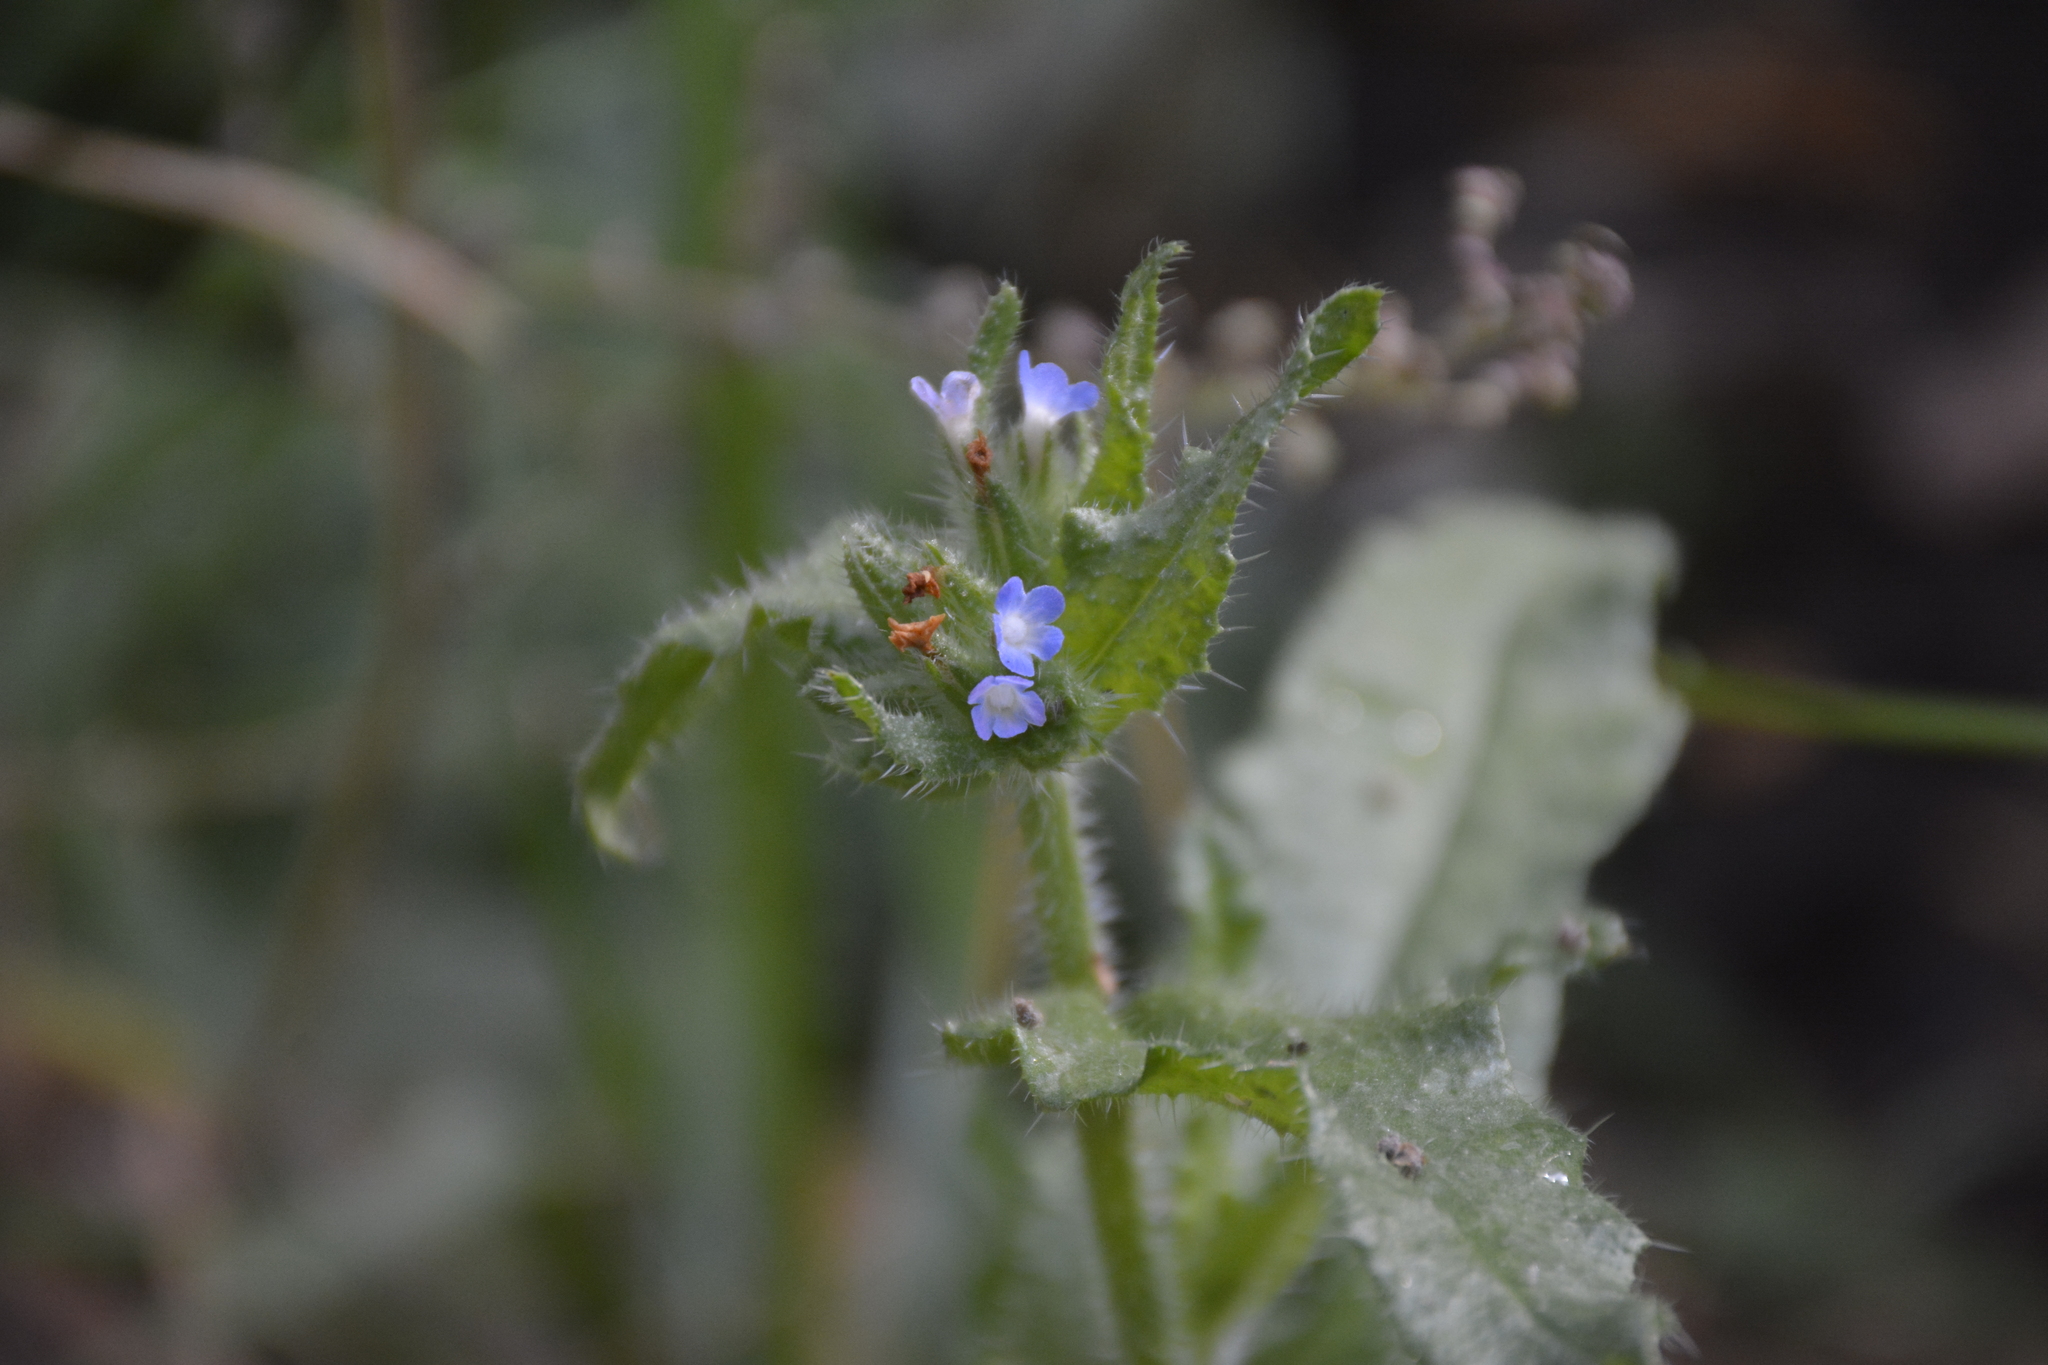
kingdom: Plantae
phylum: Tracheophyta
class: Magnoliopsida
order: Boraginales
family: Boraginaceae
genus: Lycopsis
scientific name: Lycopsis arvensis
